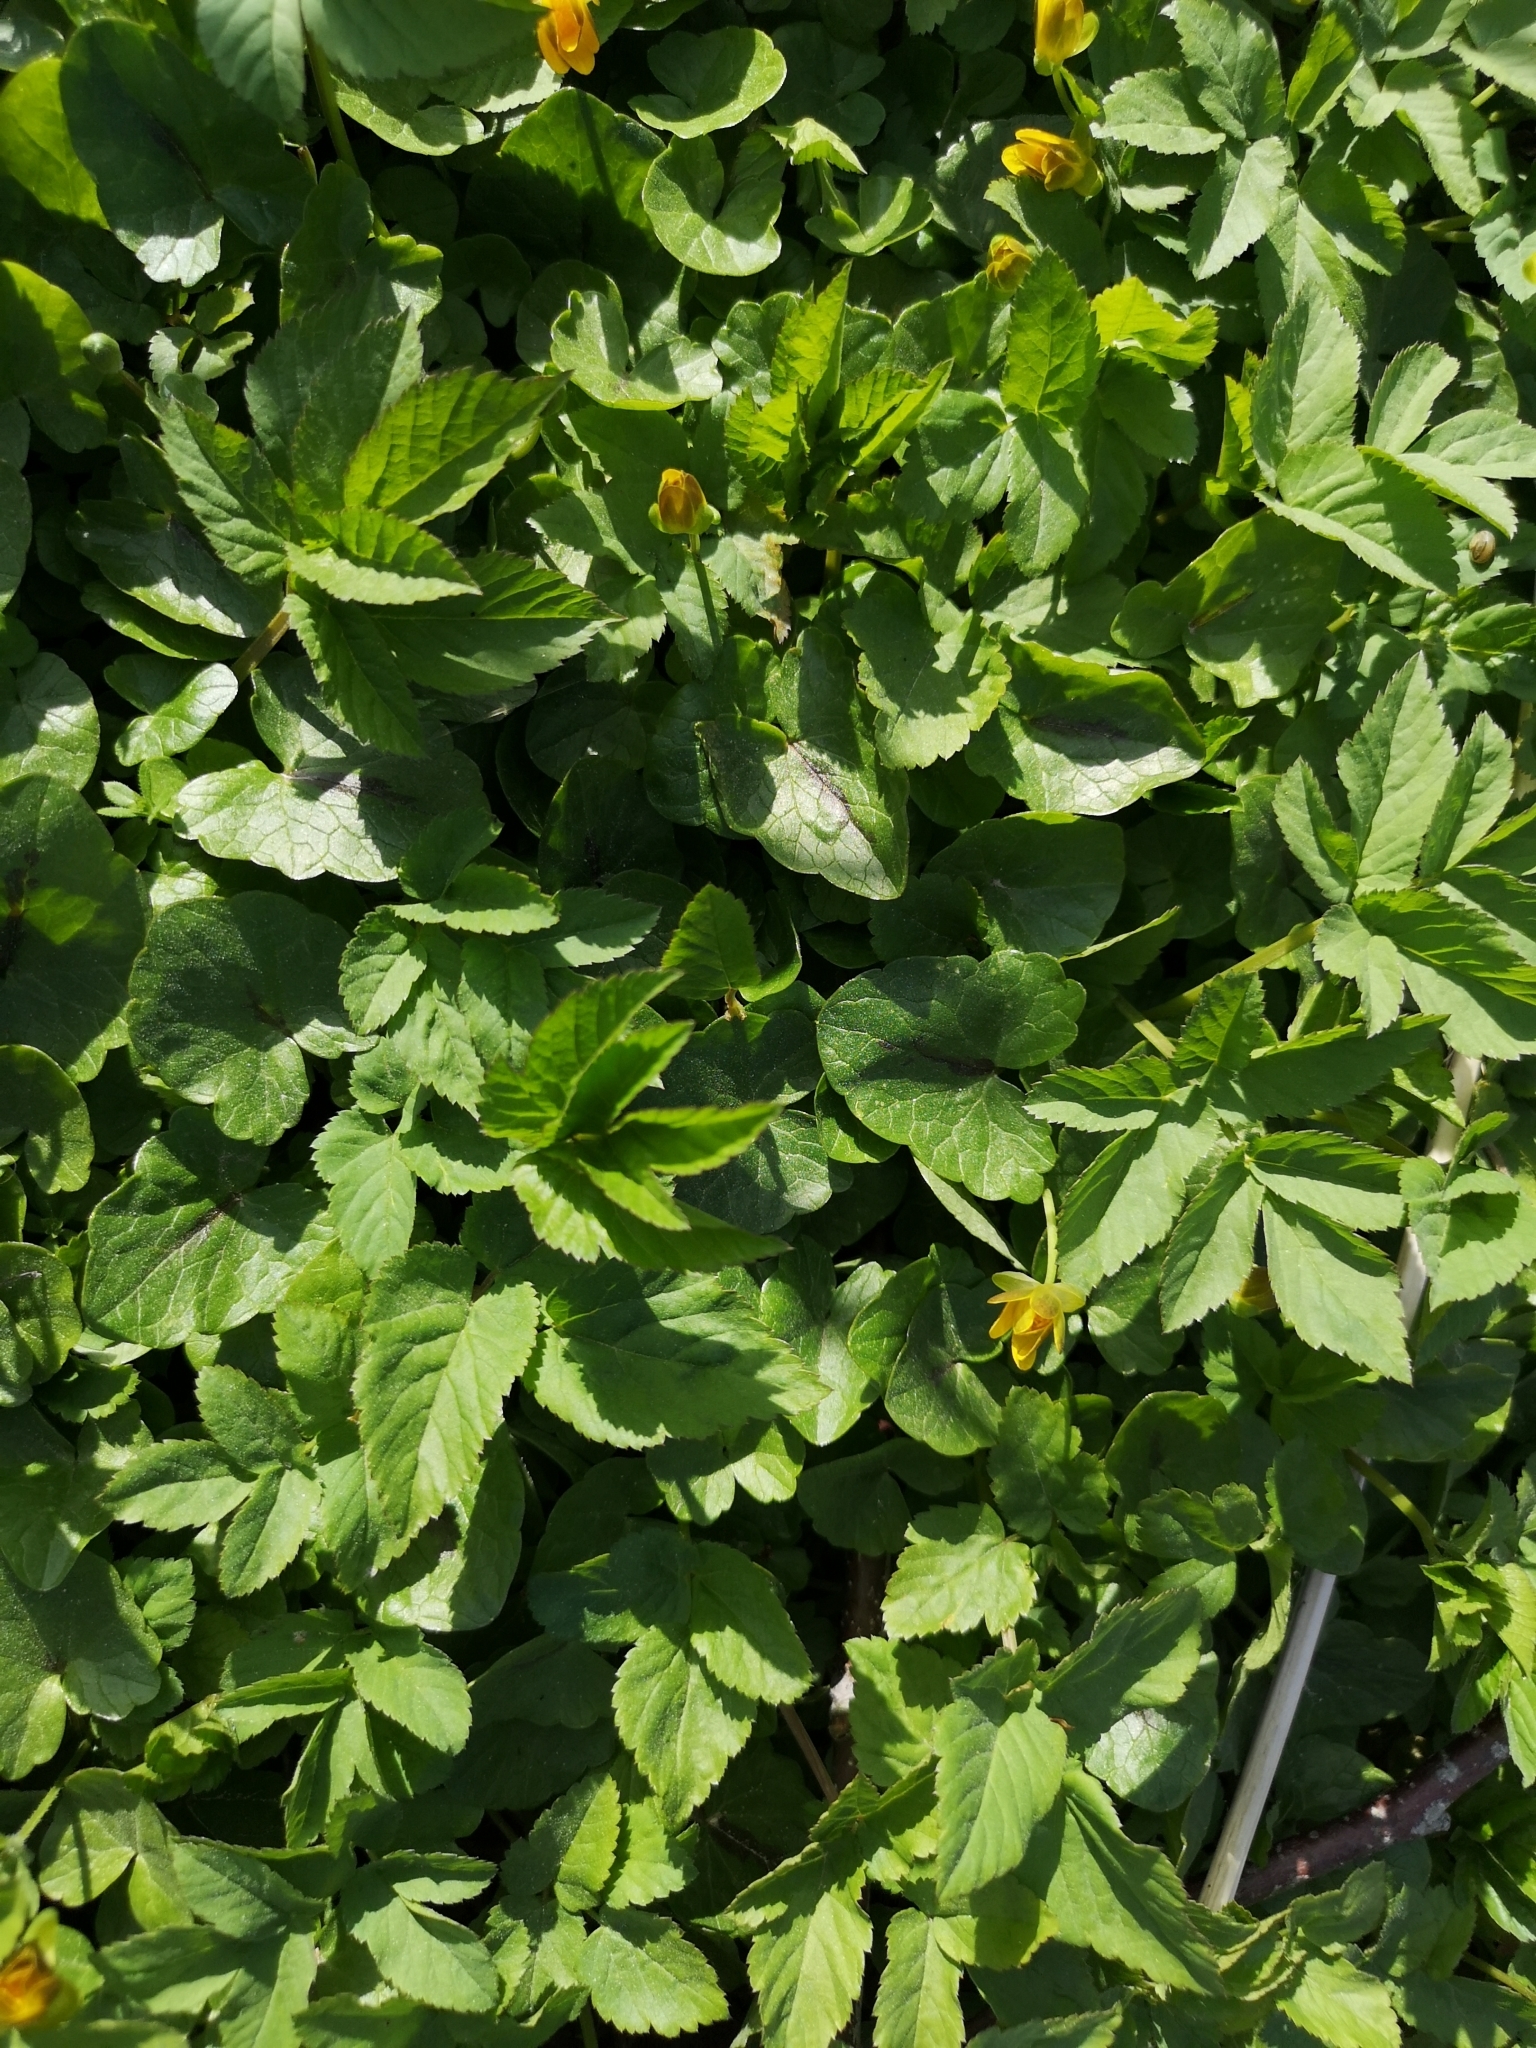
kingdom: Plantae
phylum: Tracheophyta
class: Magnoliopsida
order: Apiales
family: Apiaceae
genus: Aegopodium
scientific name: Aegopodium podagraria
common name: Ground-elder
